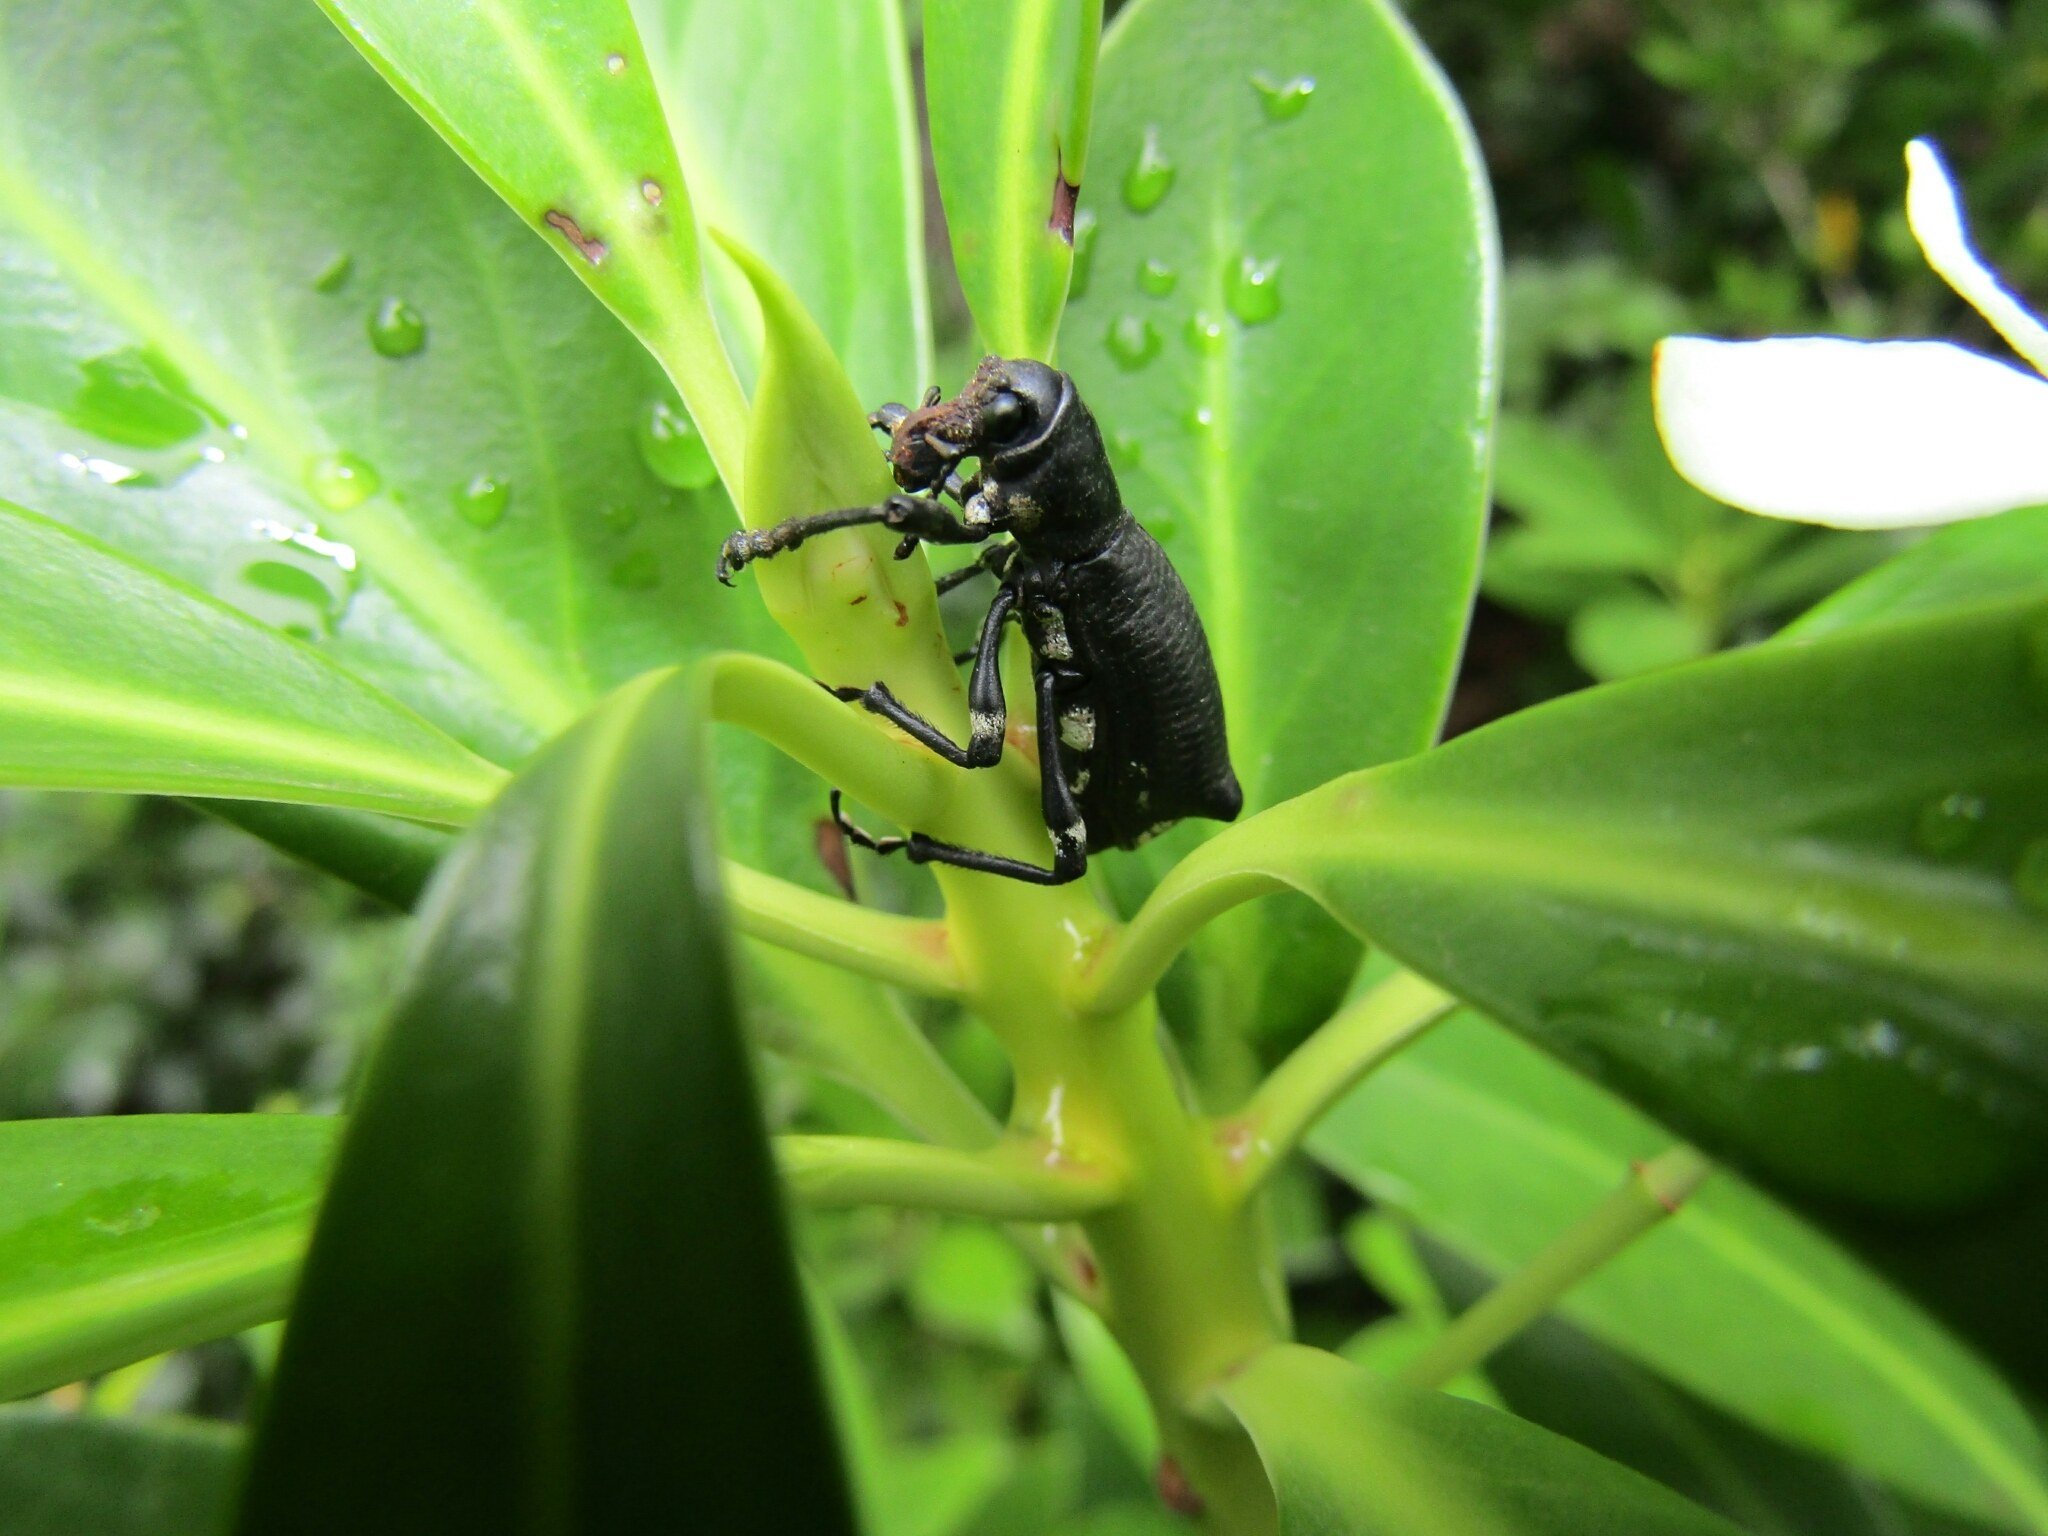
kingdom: Animalia
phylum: Arthropoda
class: Insecta
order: Coleoptera
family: Curculionidae
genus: Aegorhinus
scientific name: Aegorhinus
